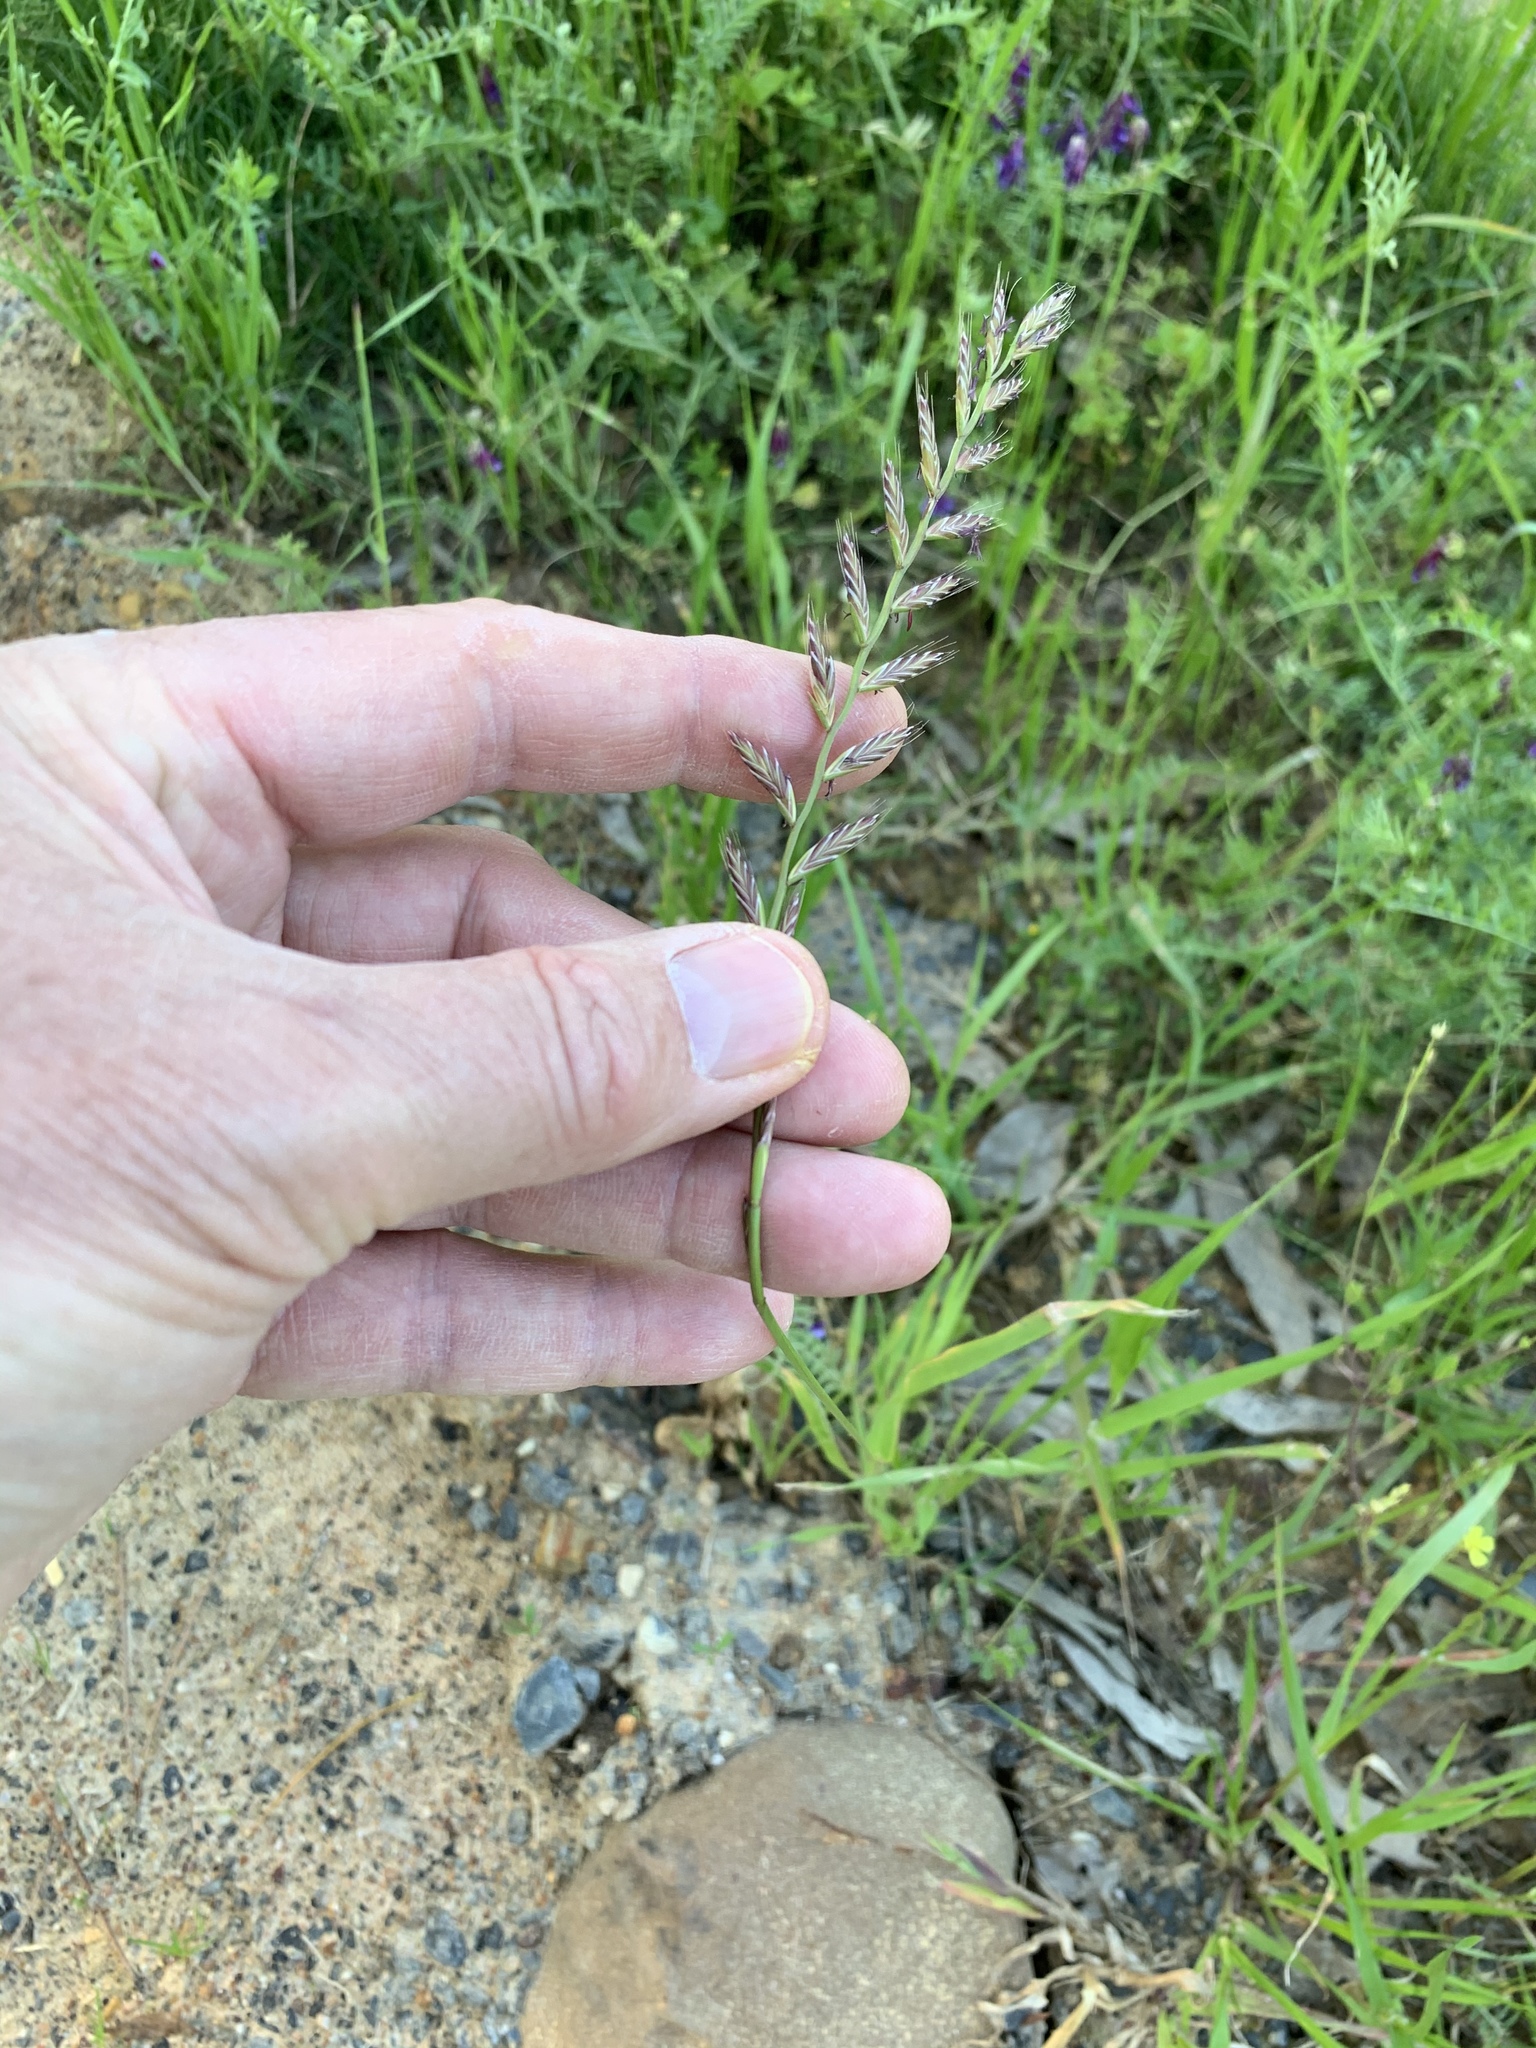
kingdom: Plantae
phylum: Tracheophyta
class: Liliopsida
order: Poales
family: Poaceae
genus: Lolium
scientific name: Lolium multiflorum
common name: Annual ryegrass
